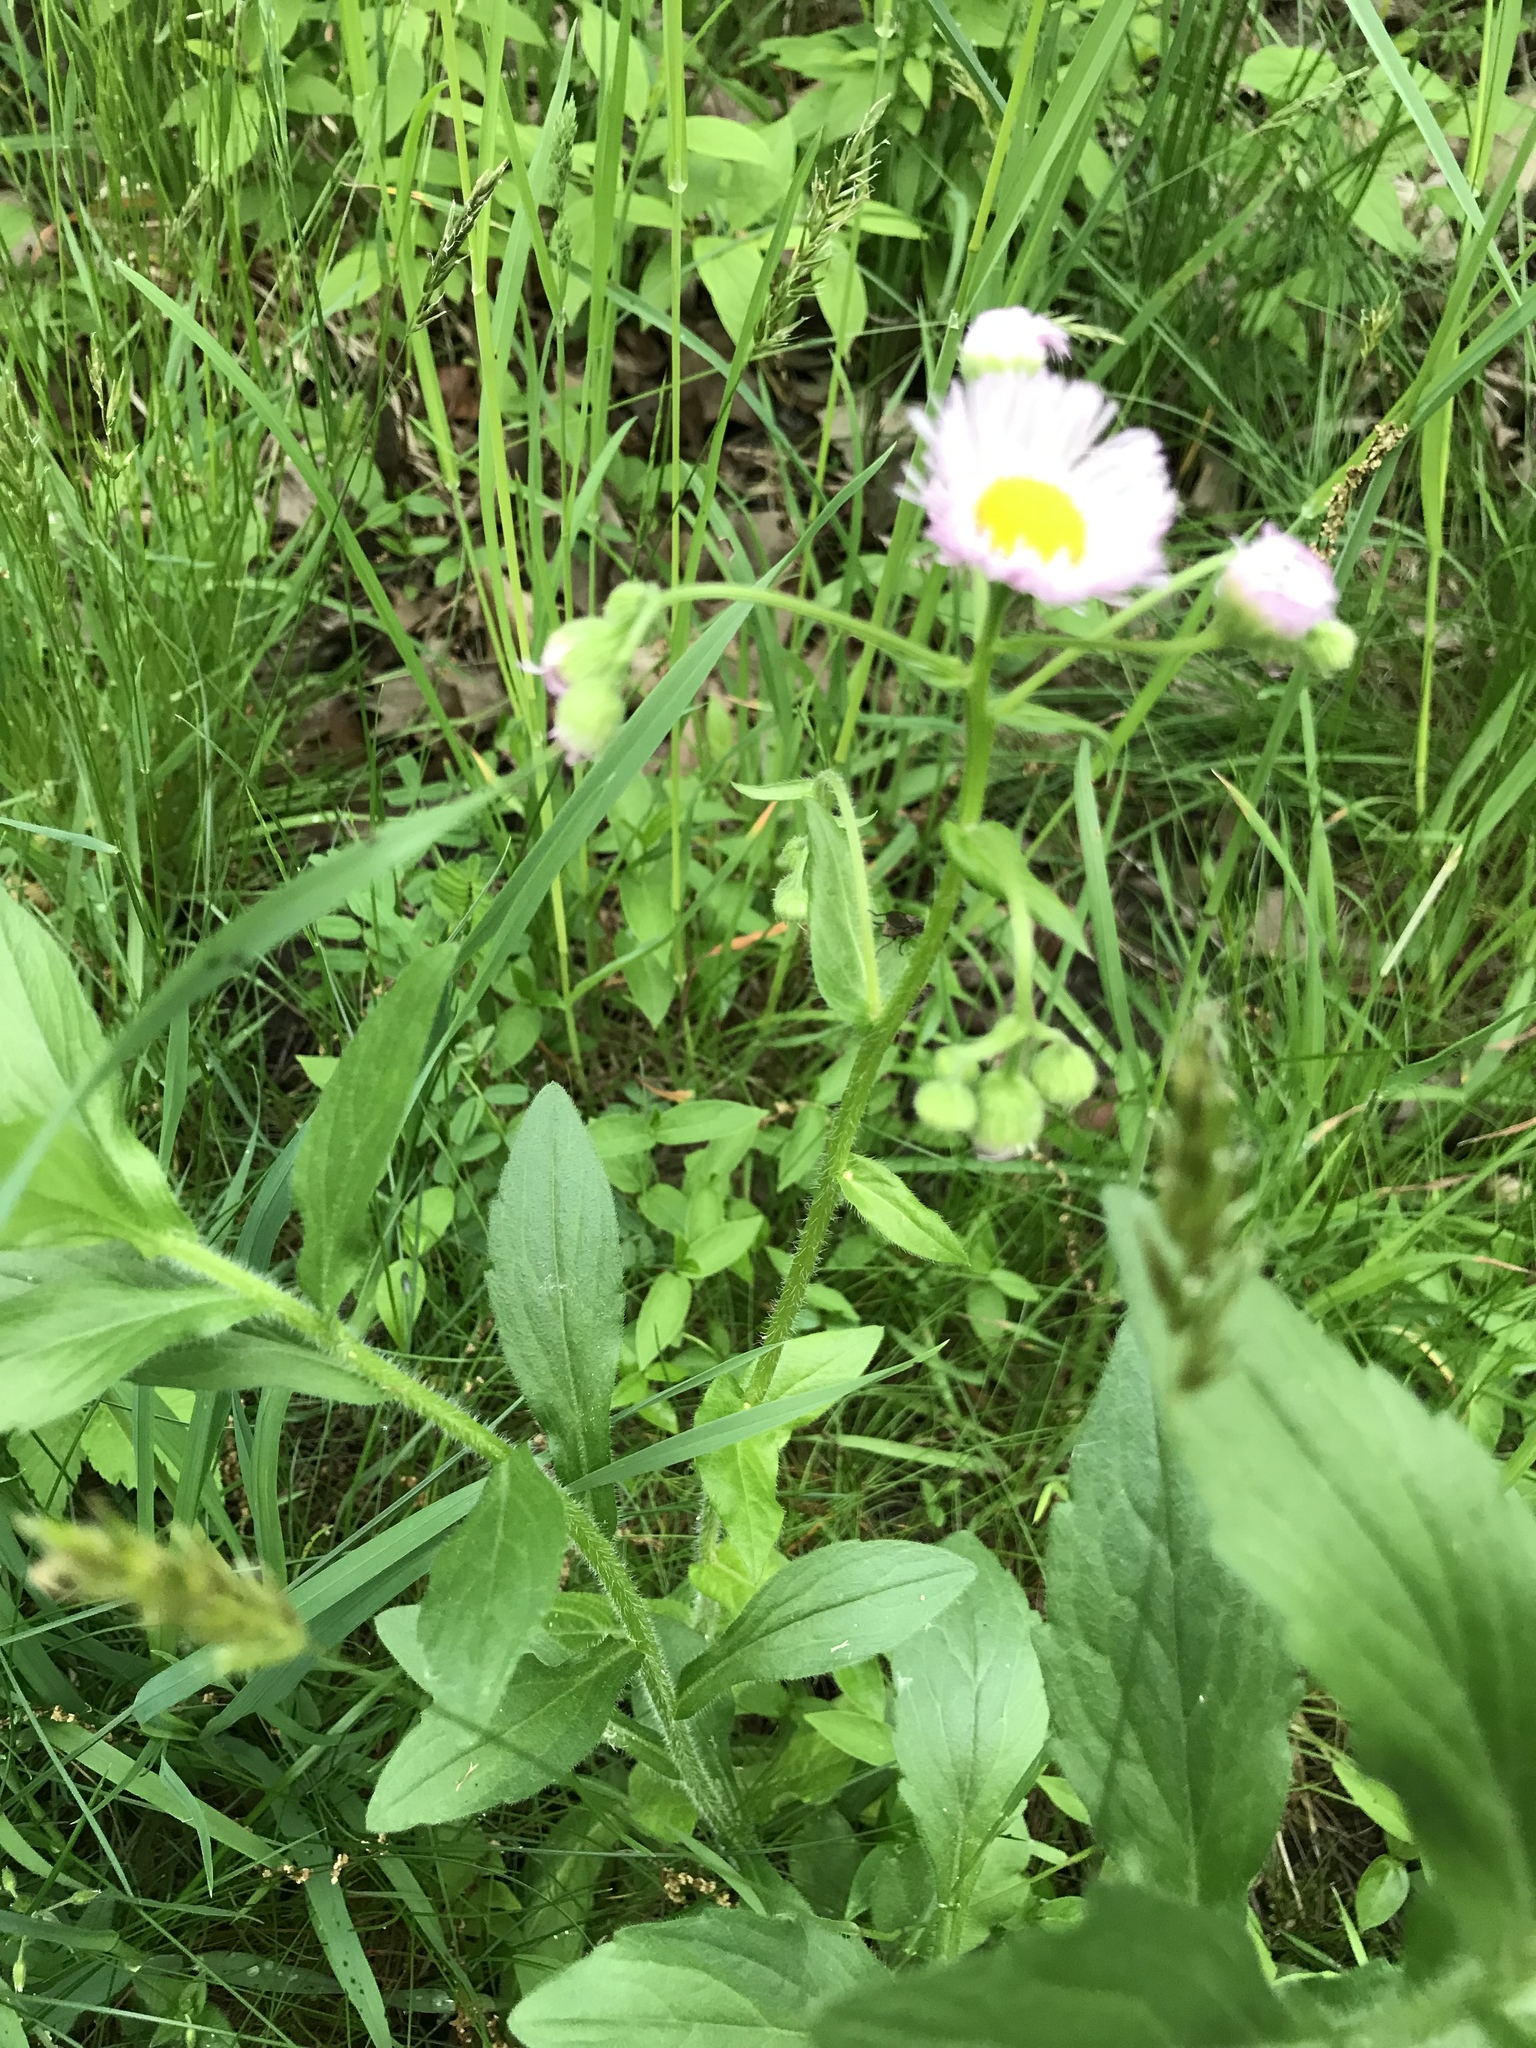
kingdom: Plantae
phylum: Tracheophyta
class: Magnoliopsida
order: Asterales
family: Asteraceae
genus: Erigeron
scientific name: Erigeron philadelphicus
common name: Robin's-plantain
